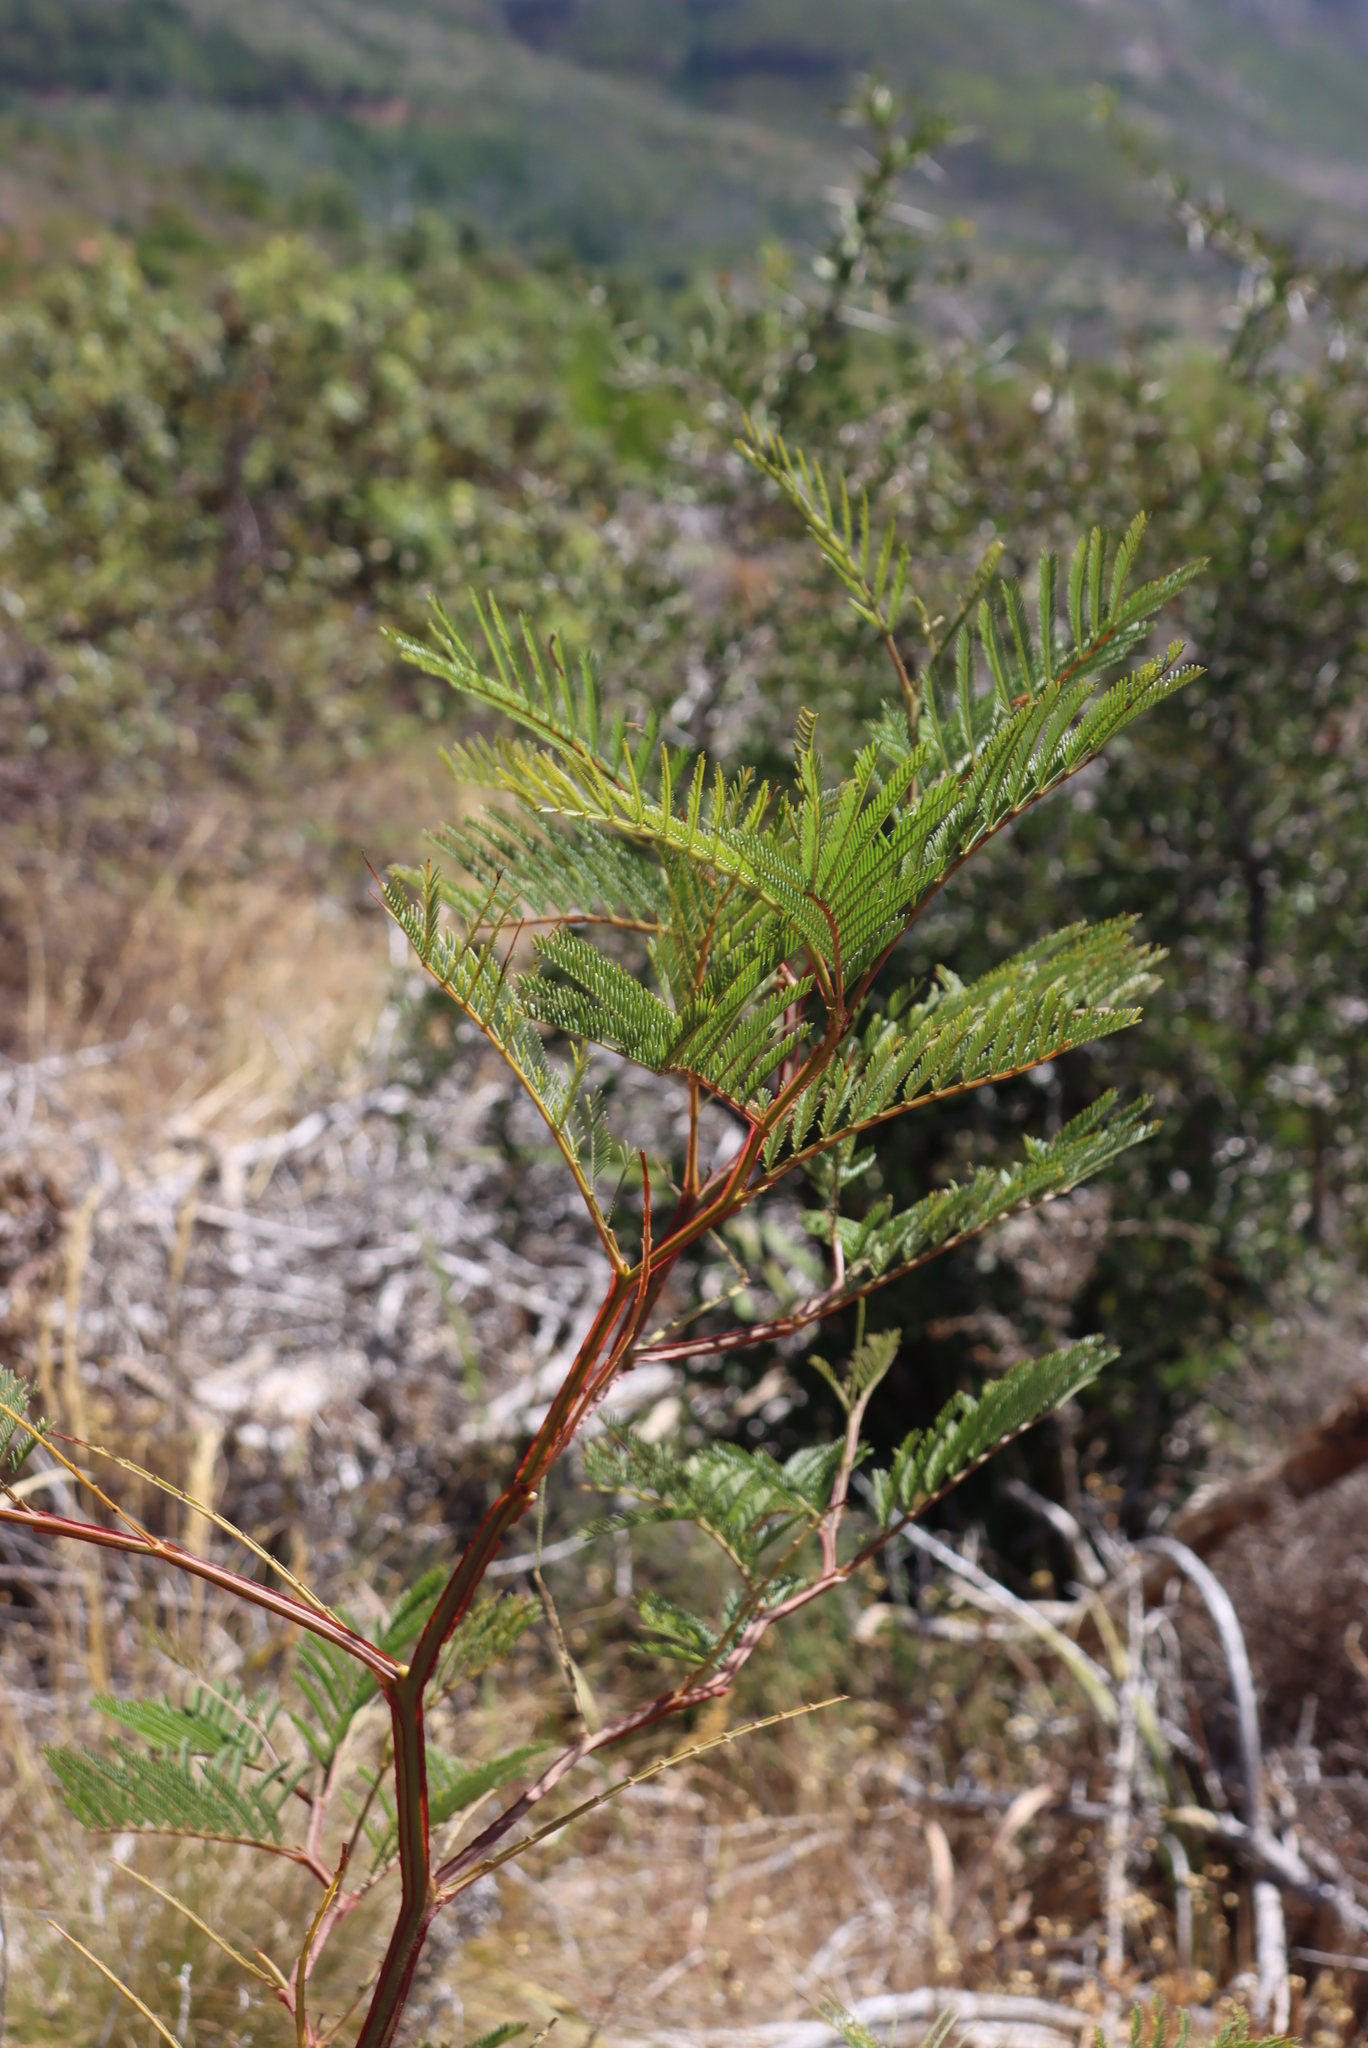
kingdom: Plantae
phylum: Tracheophyta
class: Magnoliopsida
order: Fabales
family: Fabaceae
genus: Acacia
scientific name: Acacia decurrens
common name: Green wattle
